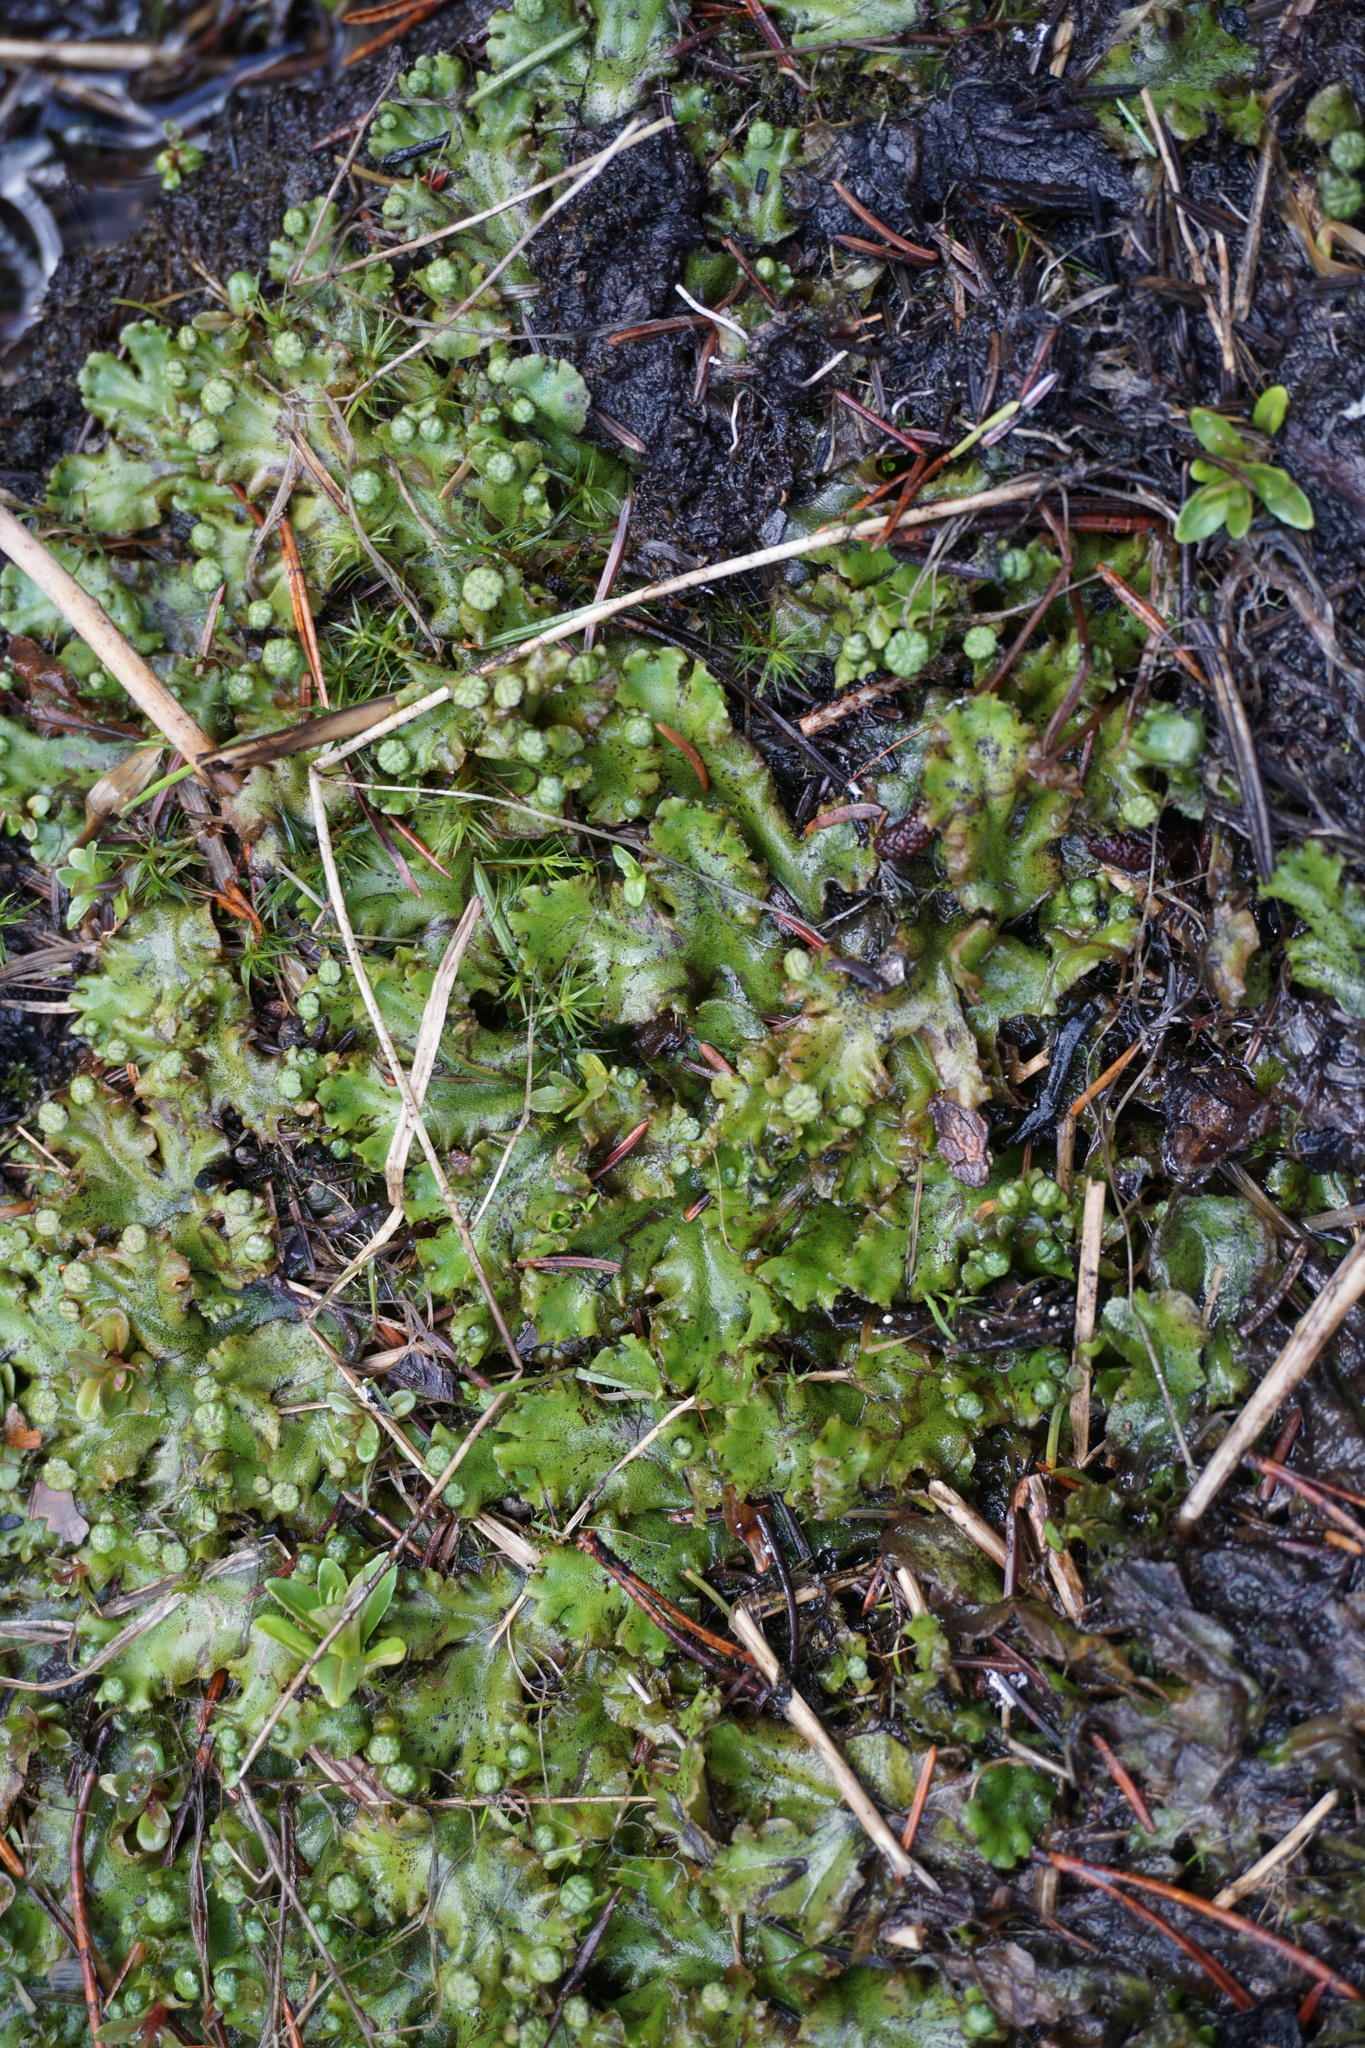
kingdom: Plantae
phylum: Marchantiophyta
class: Marchantiopsida
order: Marchantiales
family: Marchantiaceae
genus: Marchantia
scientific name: Marchantia polymorpha
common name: Common liverwort
